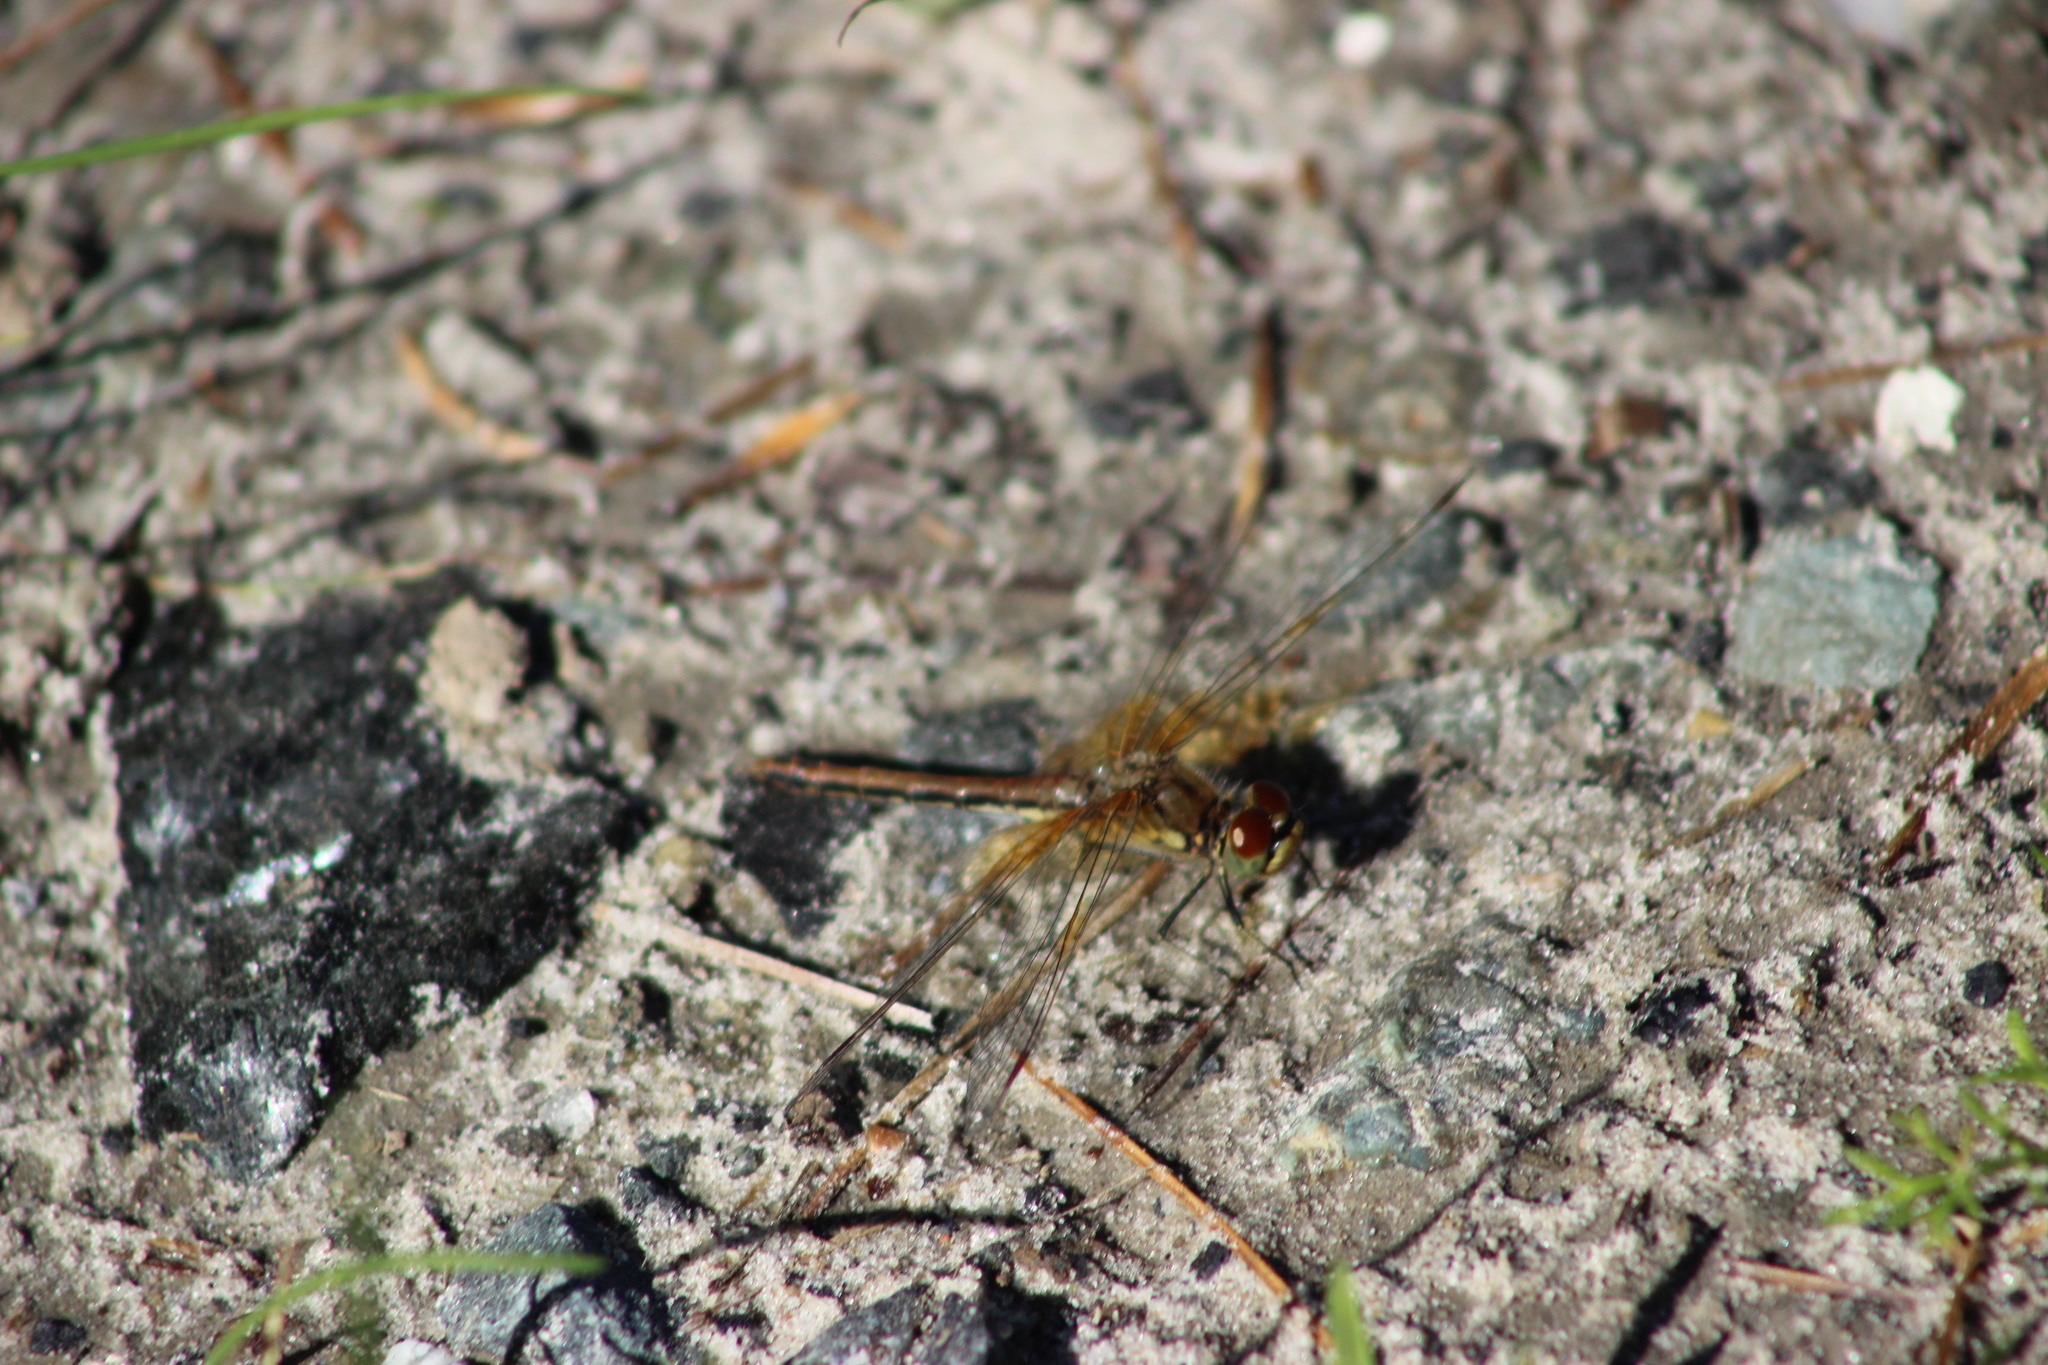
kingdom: Animalia
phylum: Arthropoda
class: Insecta
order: Odonata
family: Libellulidae
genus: Sympetrum
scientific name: Sympetrum flaveolum
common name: Yellow-winged darter
